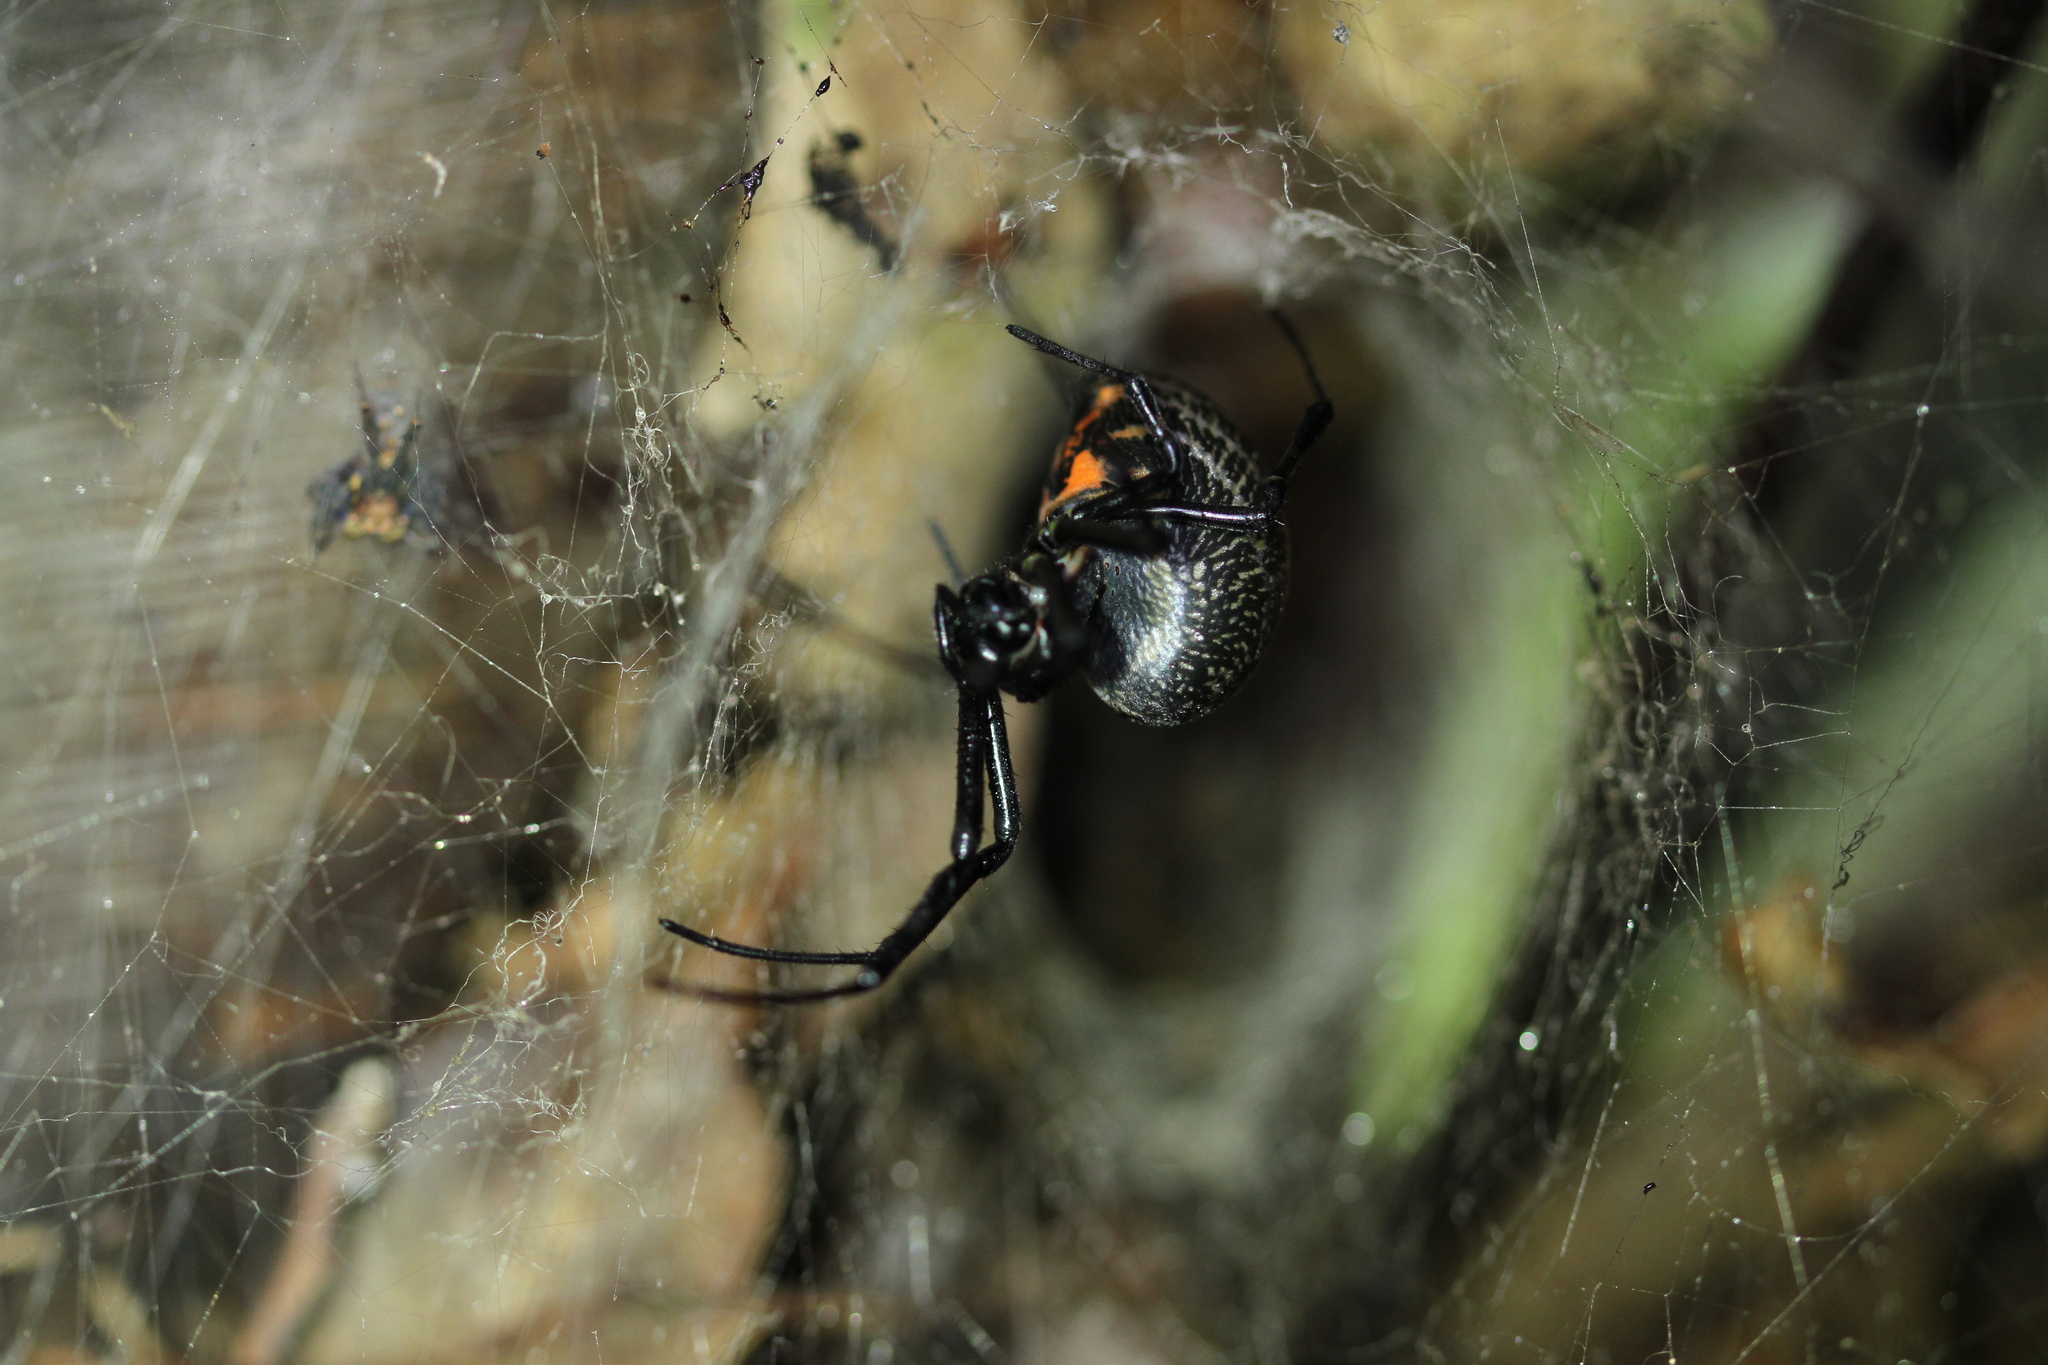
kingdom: Animalia
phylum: Arthropoda
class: Arachnida
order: Araneae
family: Araneidae
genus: Nephilengys
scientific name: Nephilengys malabarensis
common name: Asian hermit spider
